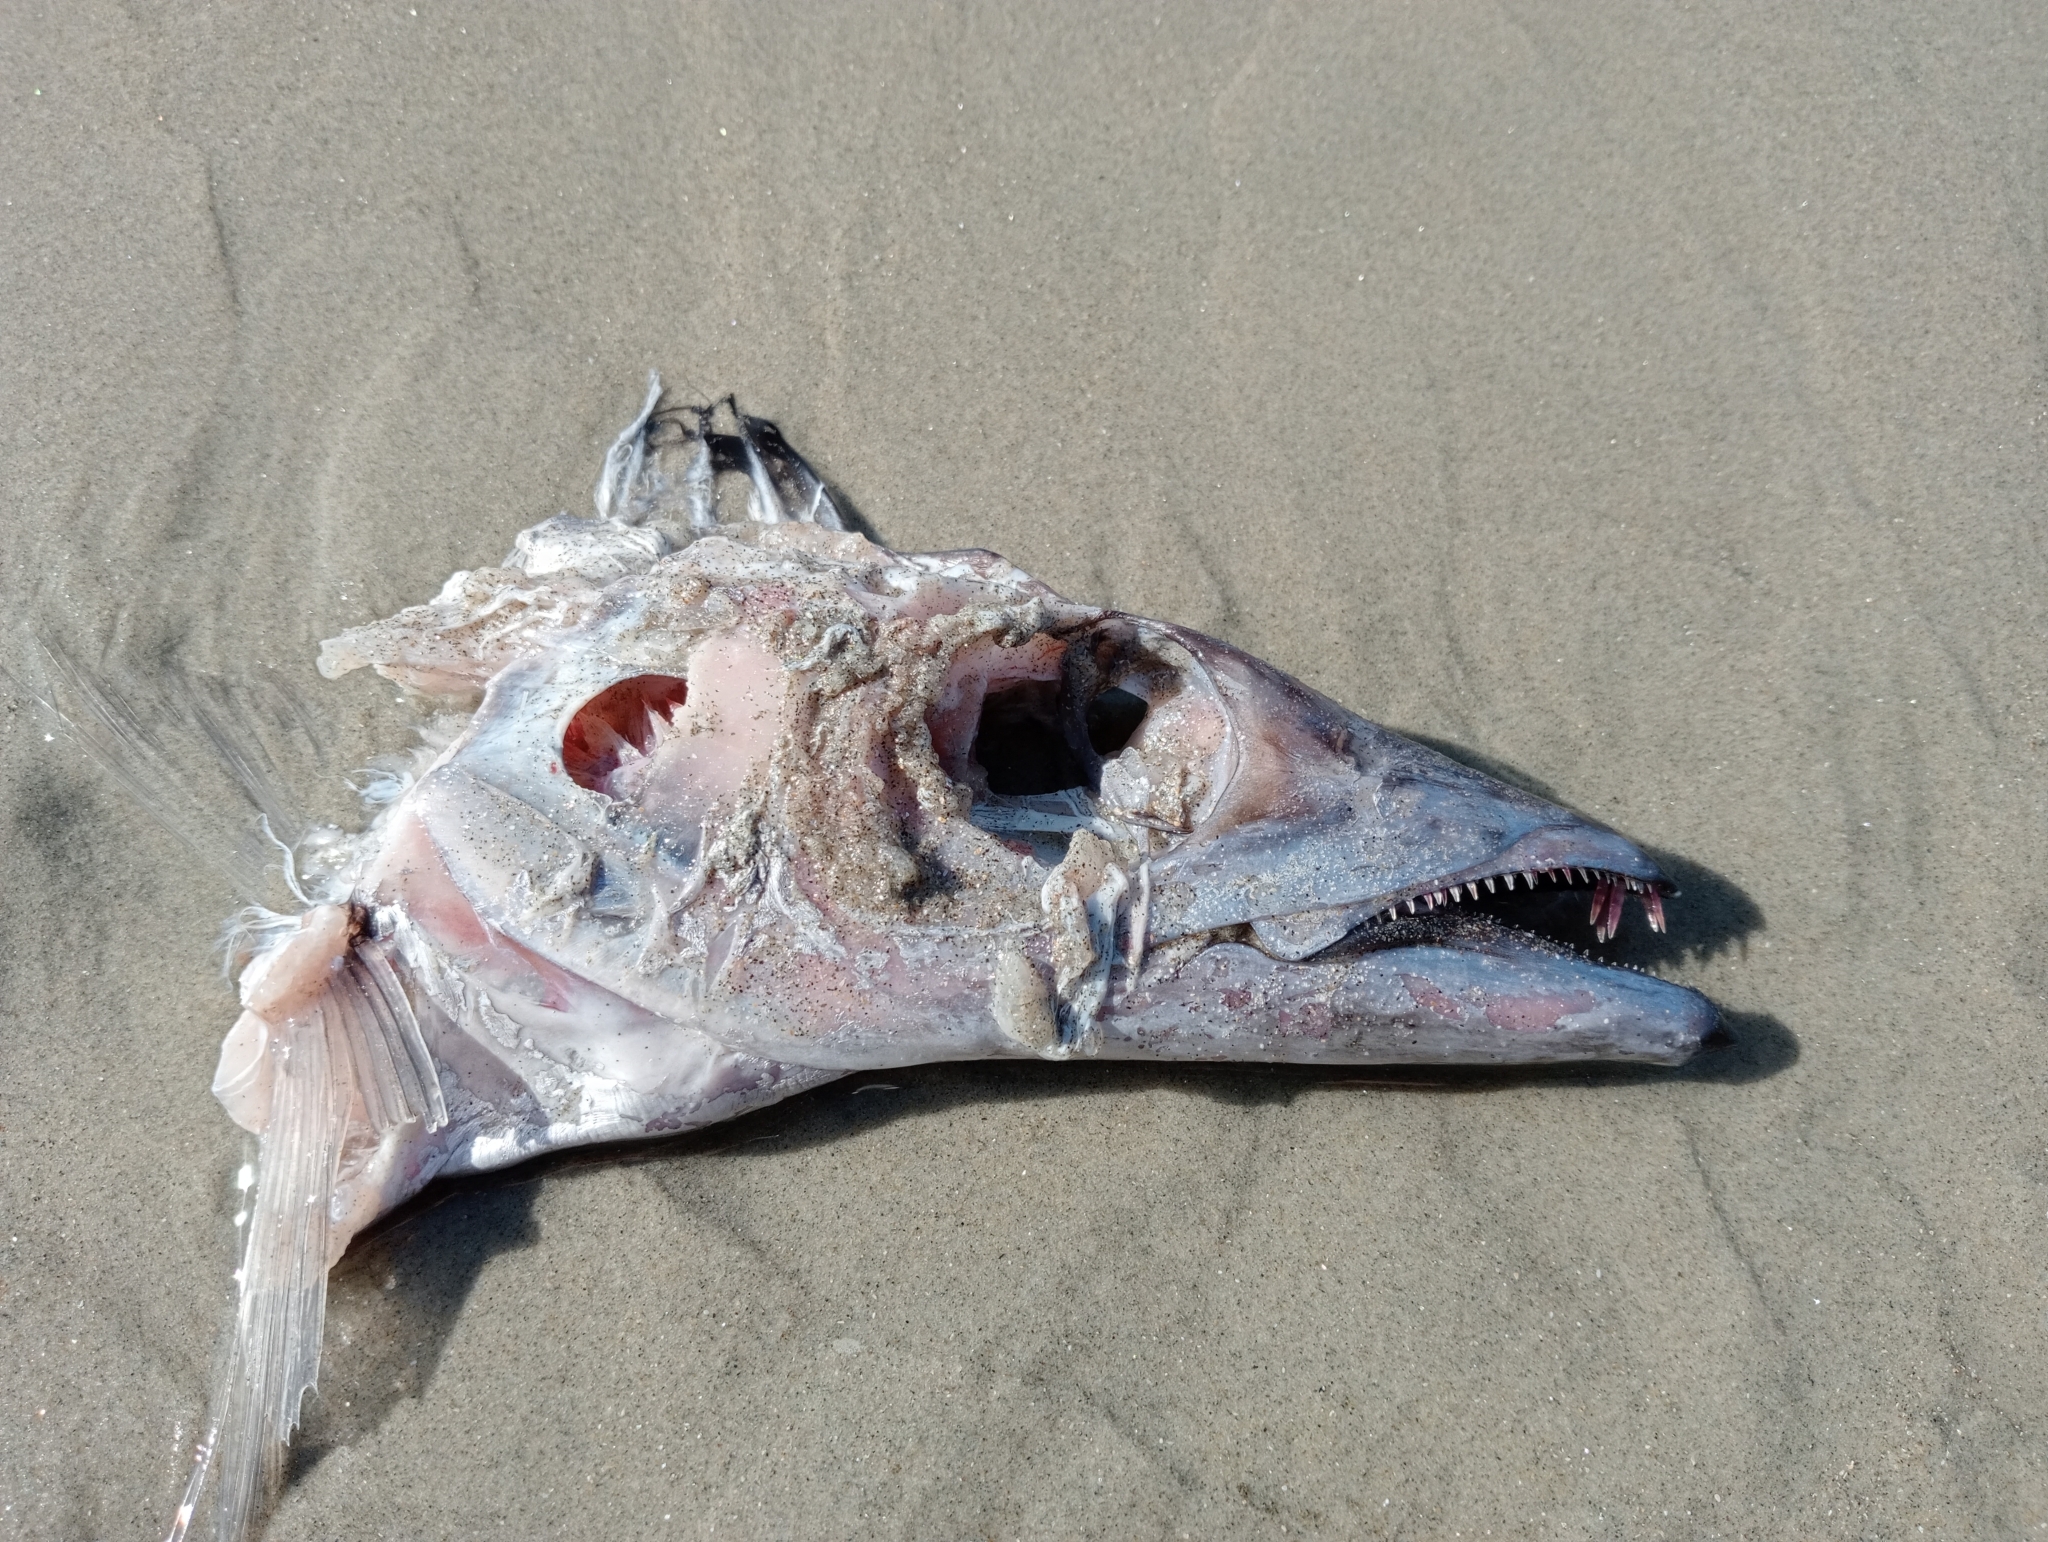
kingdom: Animalia
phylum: Chordata
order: Perciformes
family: Trichiuridae
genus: Lepidopus
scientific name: Lepidopus caudatus
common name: Silver scabbardfish
